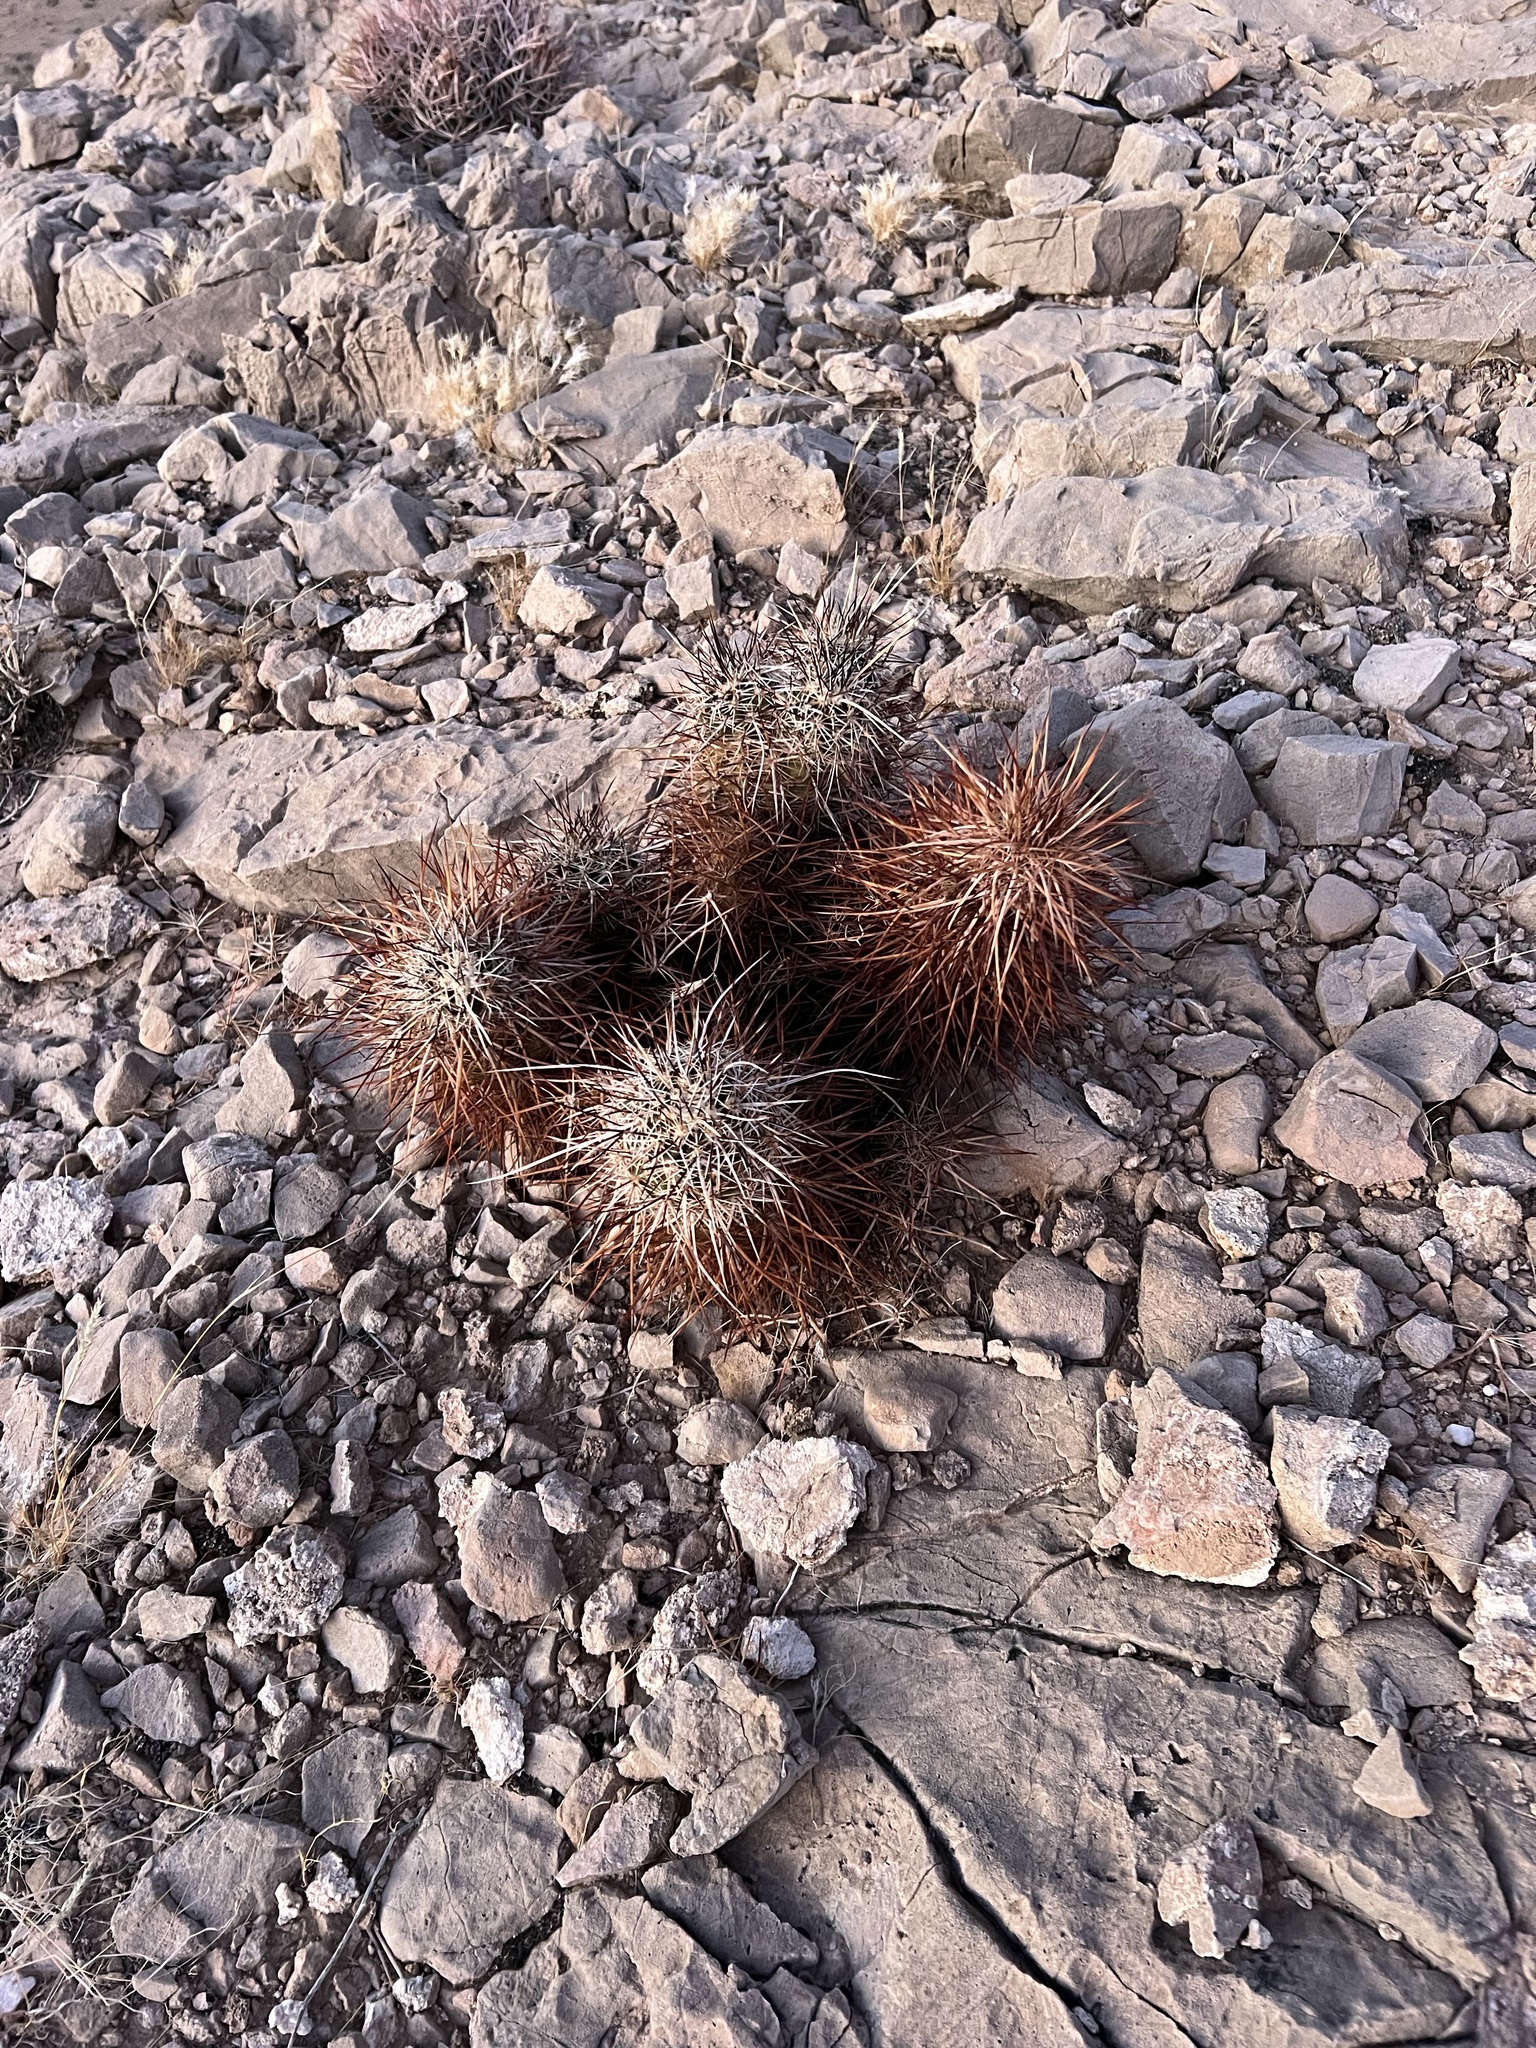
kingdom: Plantae
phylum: Tracheophyta
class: Magnoliopsida
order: Caryophyllales
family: Cactaceae
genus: Echinocereus
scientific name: Echinocereus engelmannii
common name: Engelmann's hedgehog cactus
